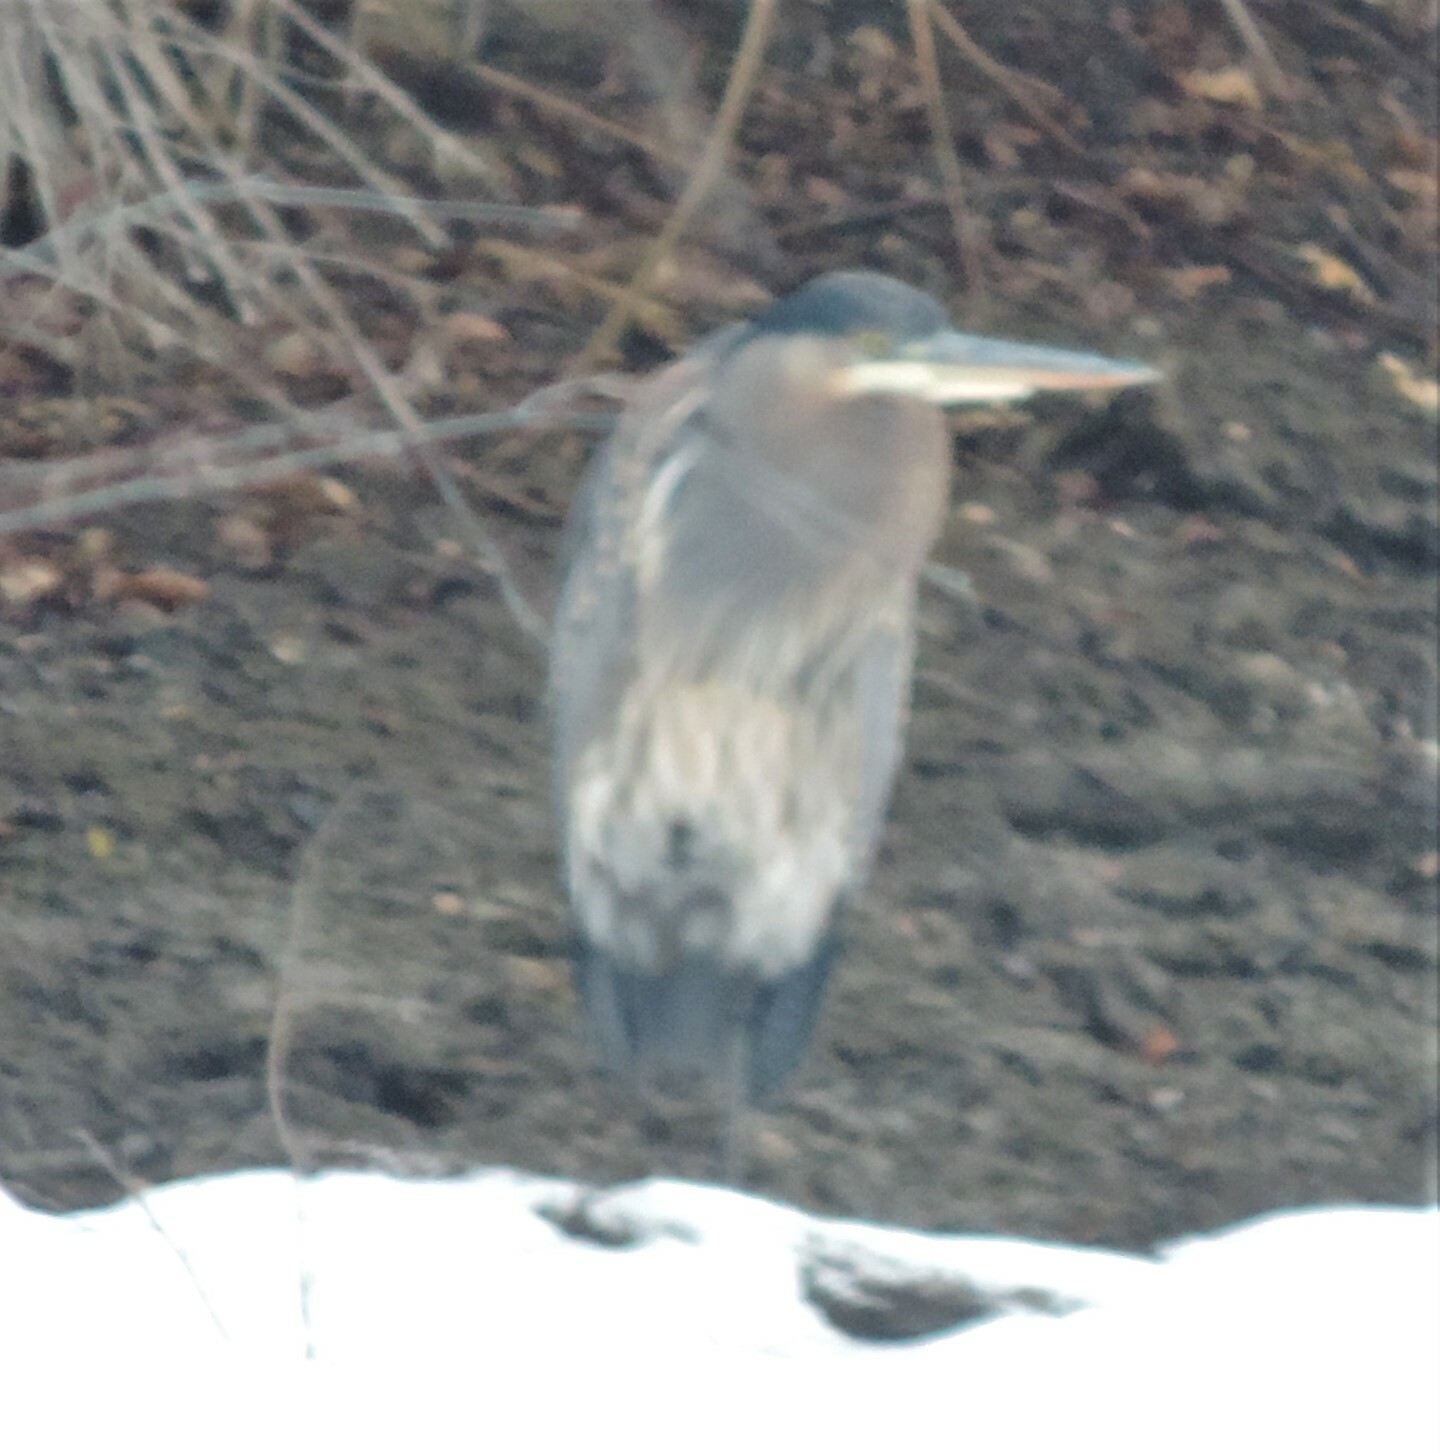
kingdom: Animalia
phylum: Chordata
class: Aves
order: Pelecaniformes
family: Ardeidae
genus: Ardea
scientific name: Ardea herodias
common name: Great blue heron
